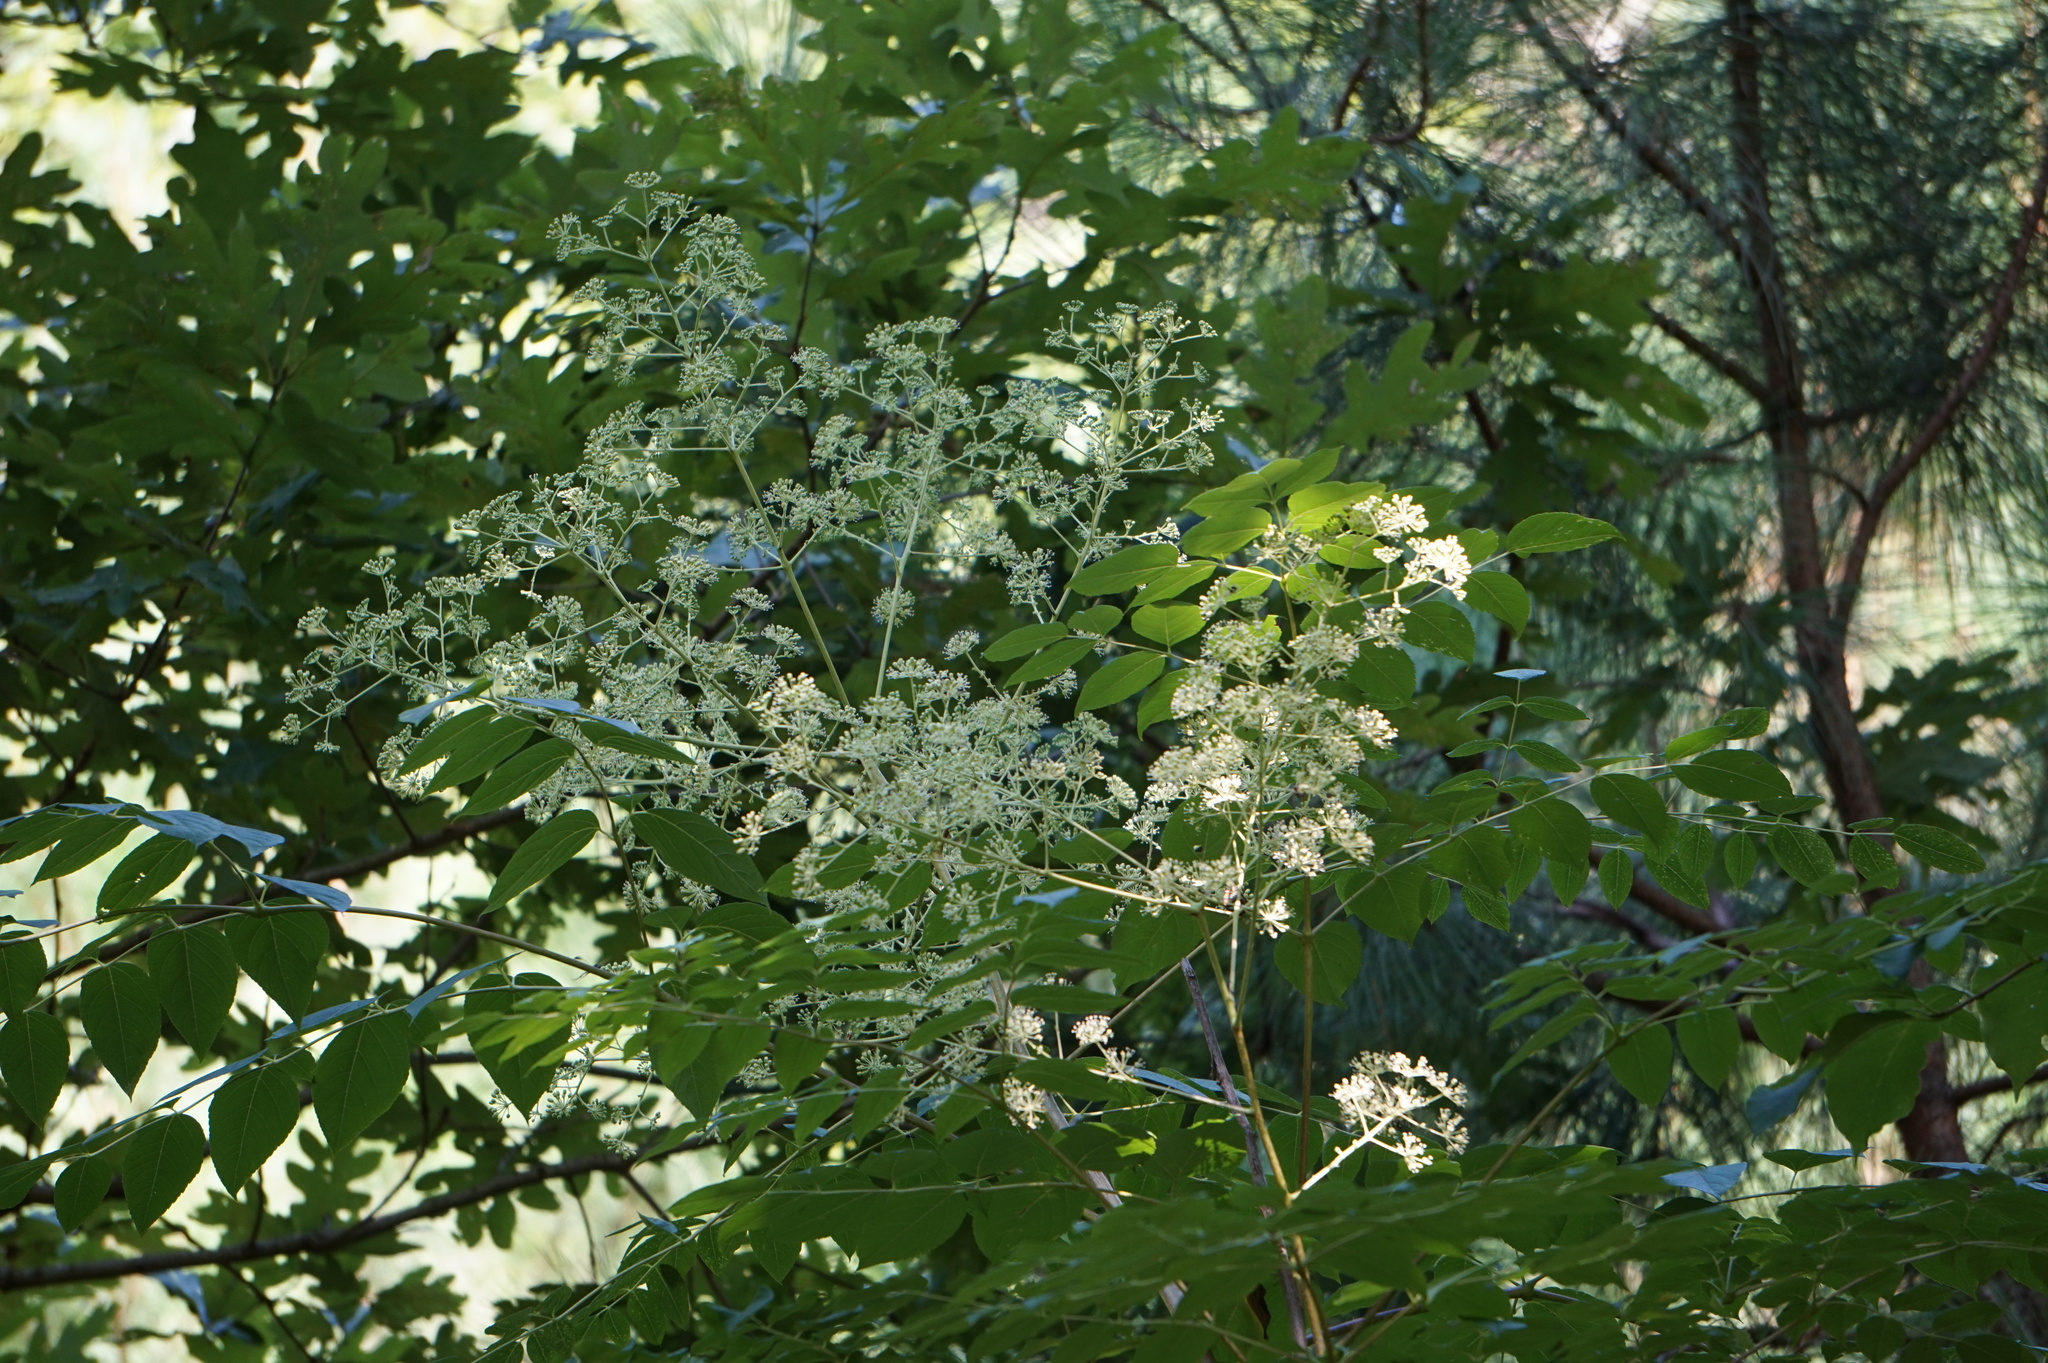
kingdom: Plantae
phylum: Tracheophyta
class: Magnoliopsida
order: Apiales
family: Araliaceae
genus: Aralia
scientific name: Aralia spinosa
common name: Hercules'-club
